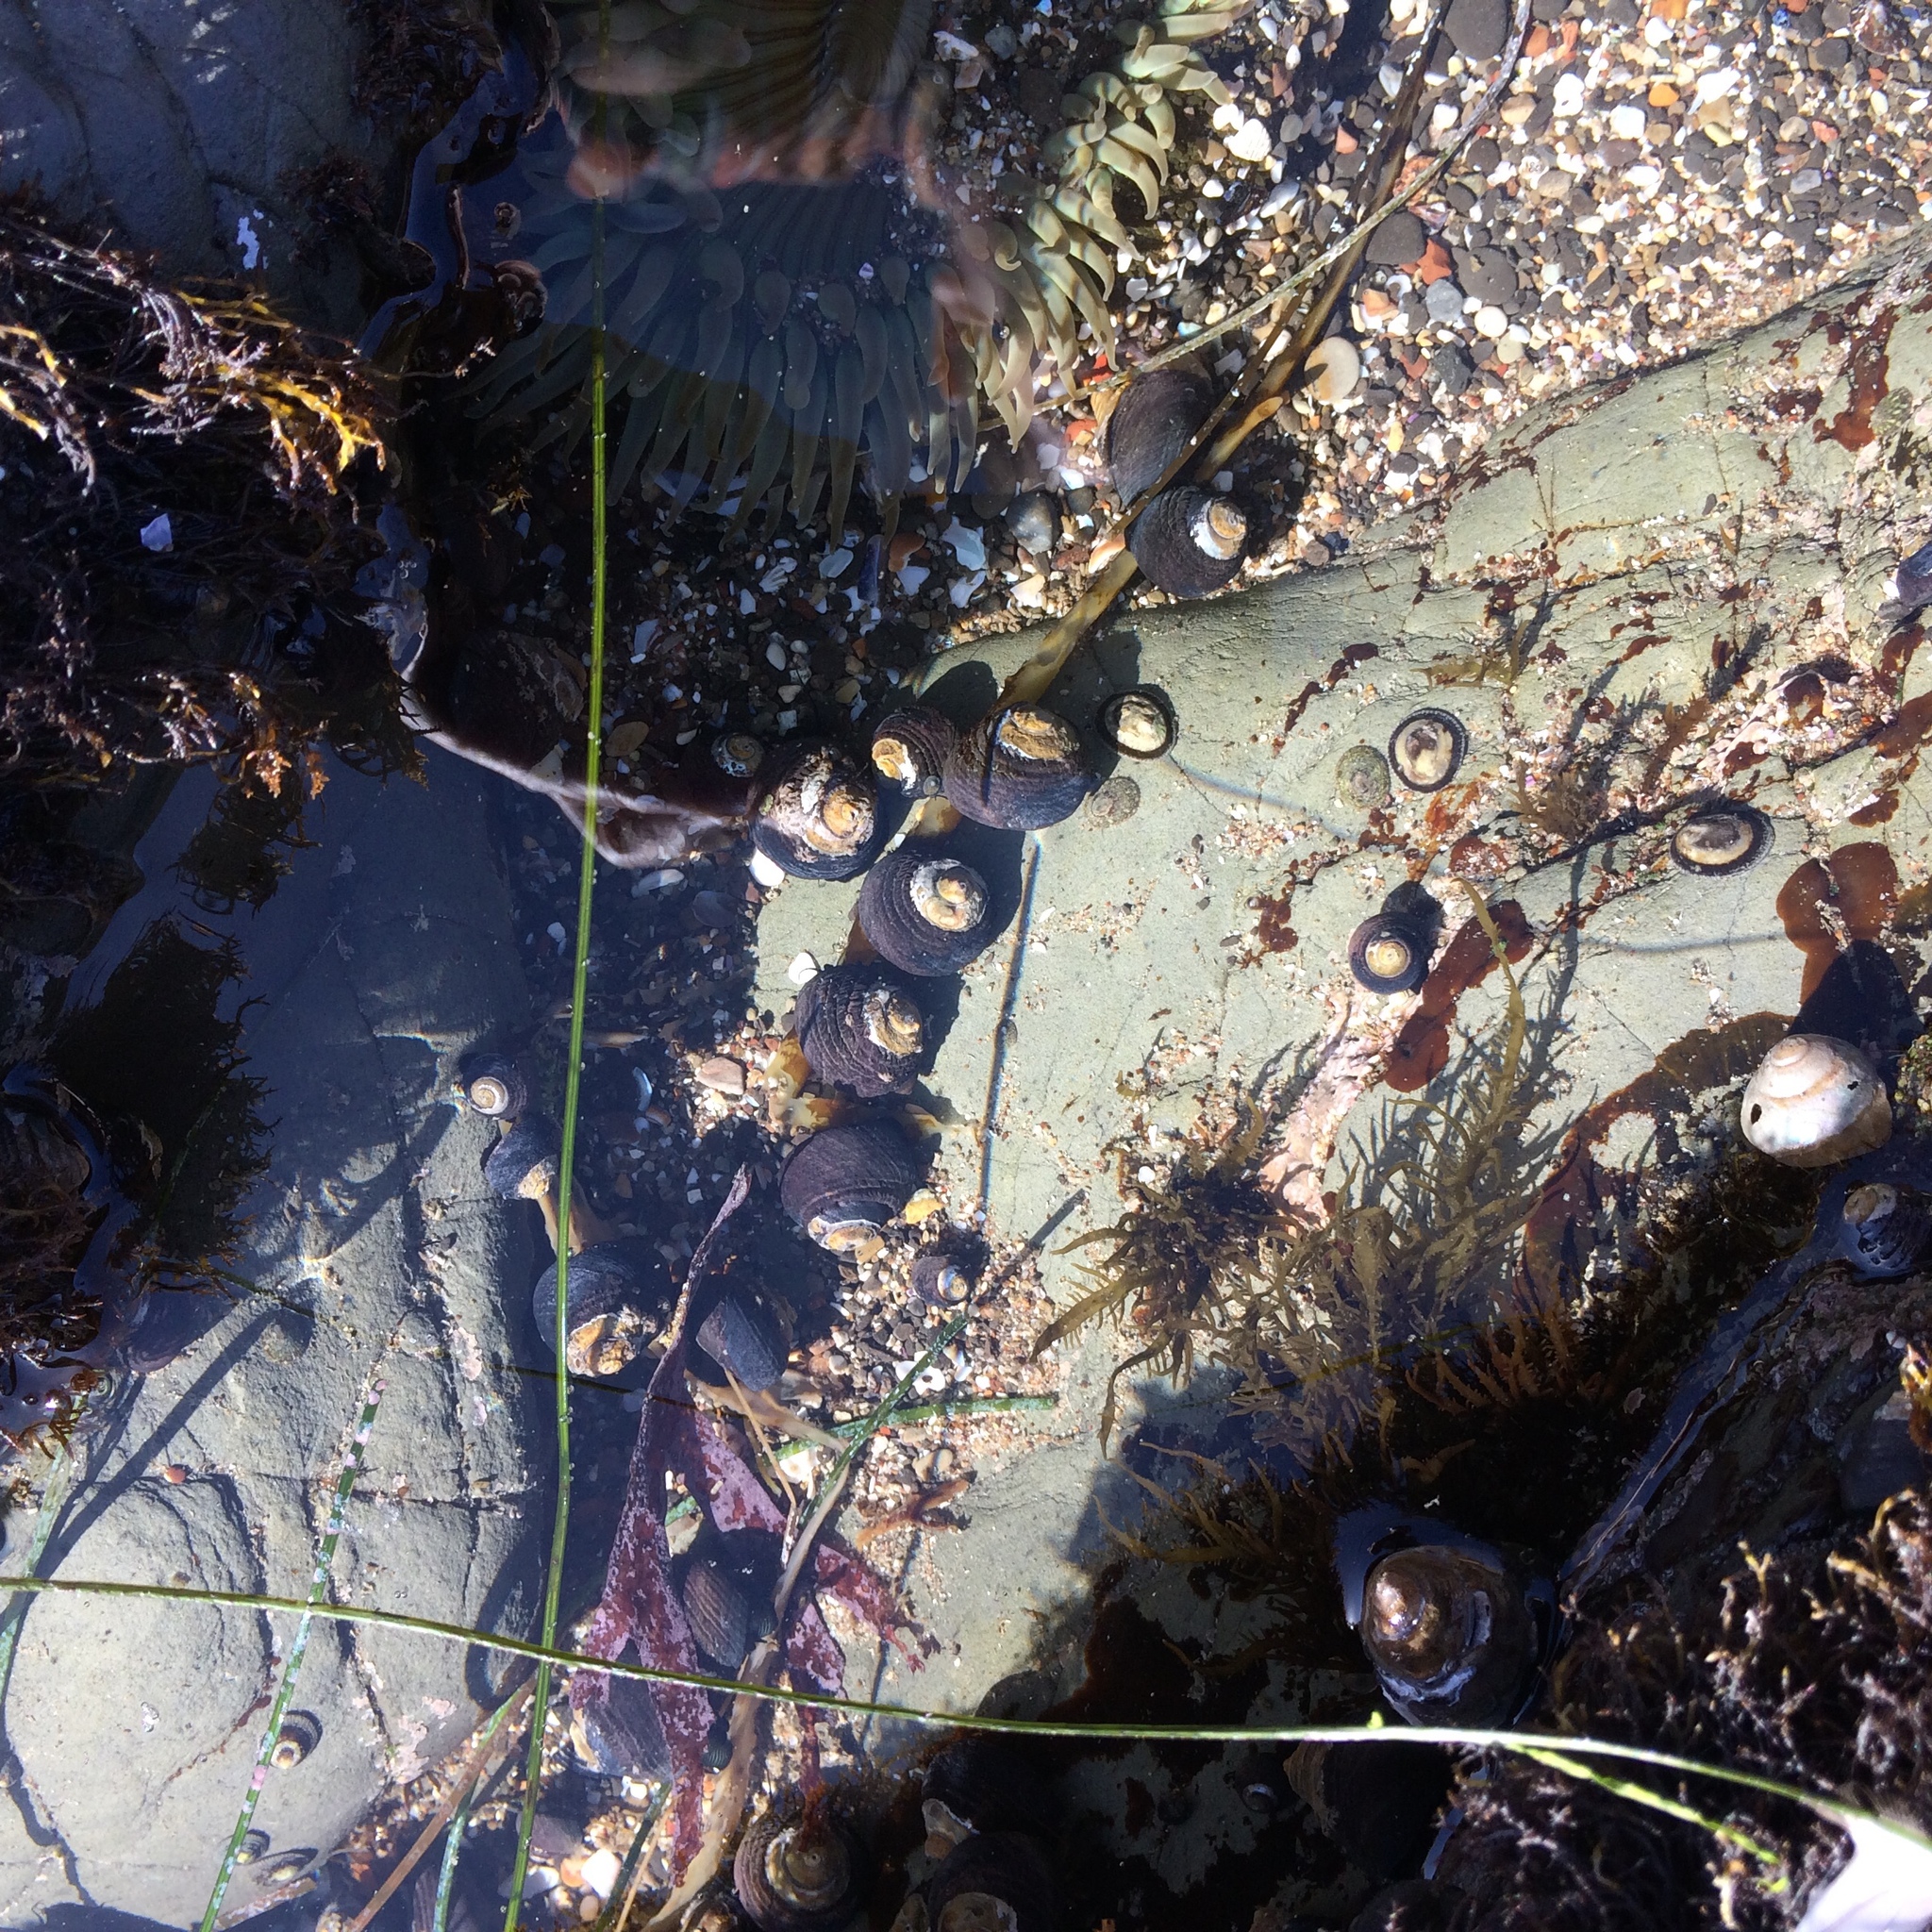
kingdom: Animalia
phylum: Mollusca
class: Gastropoda
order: Trochida
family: Tegulidae
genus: Tegula
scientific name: Tegula funebralis
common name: Black tegula
